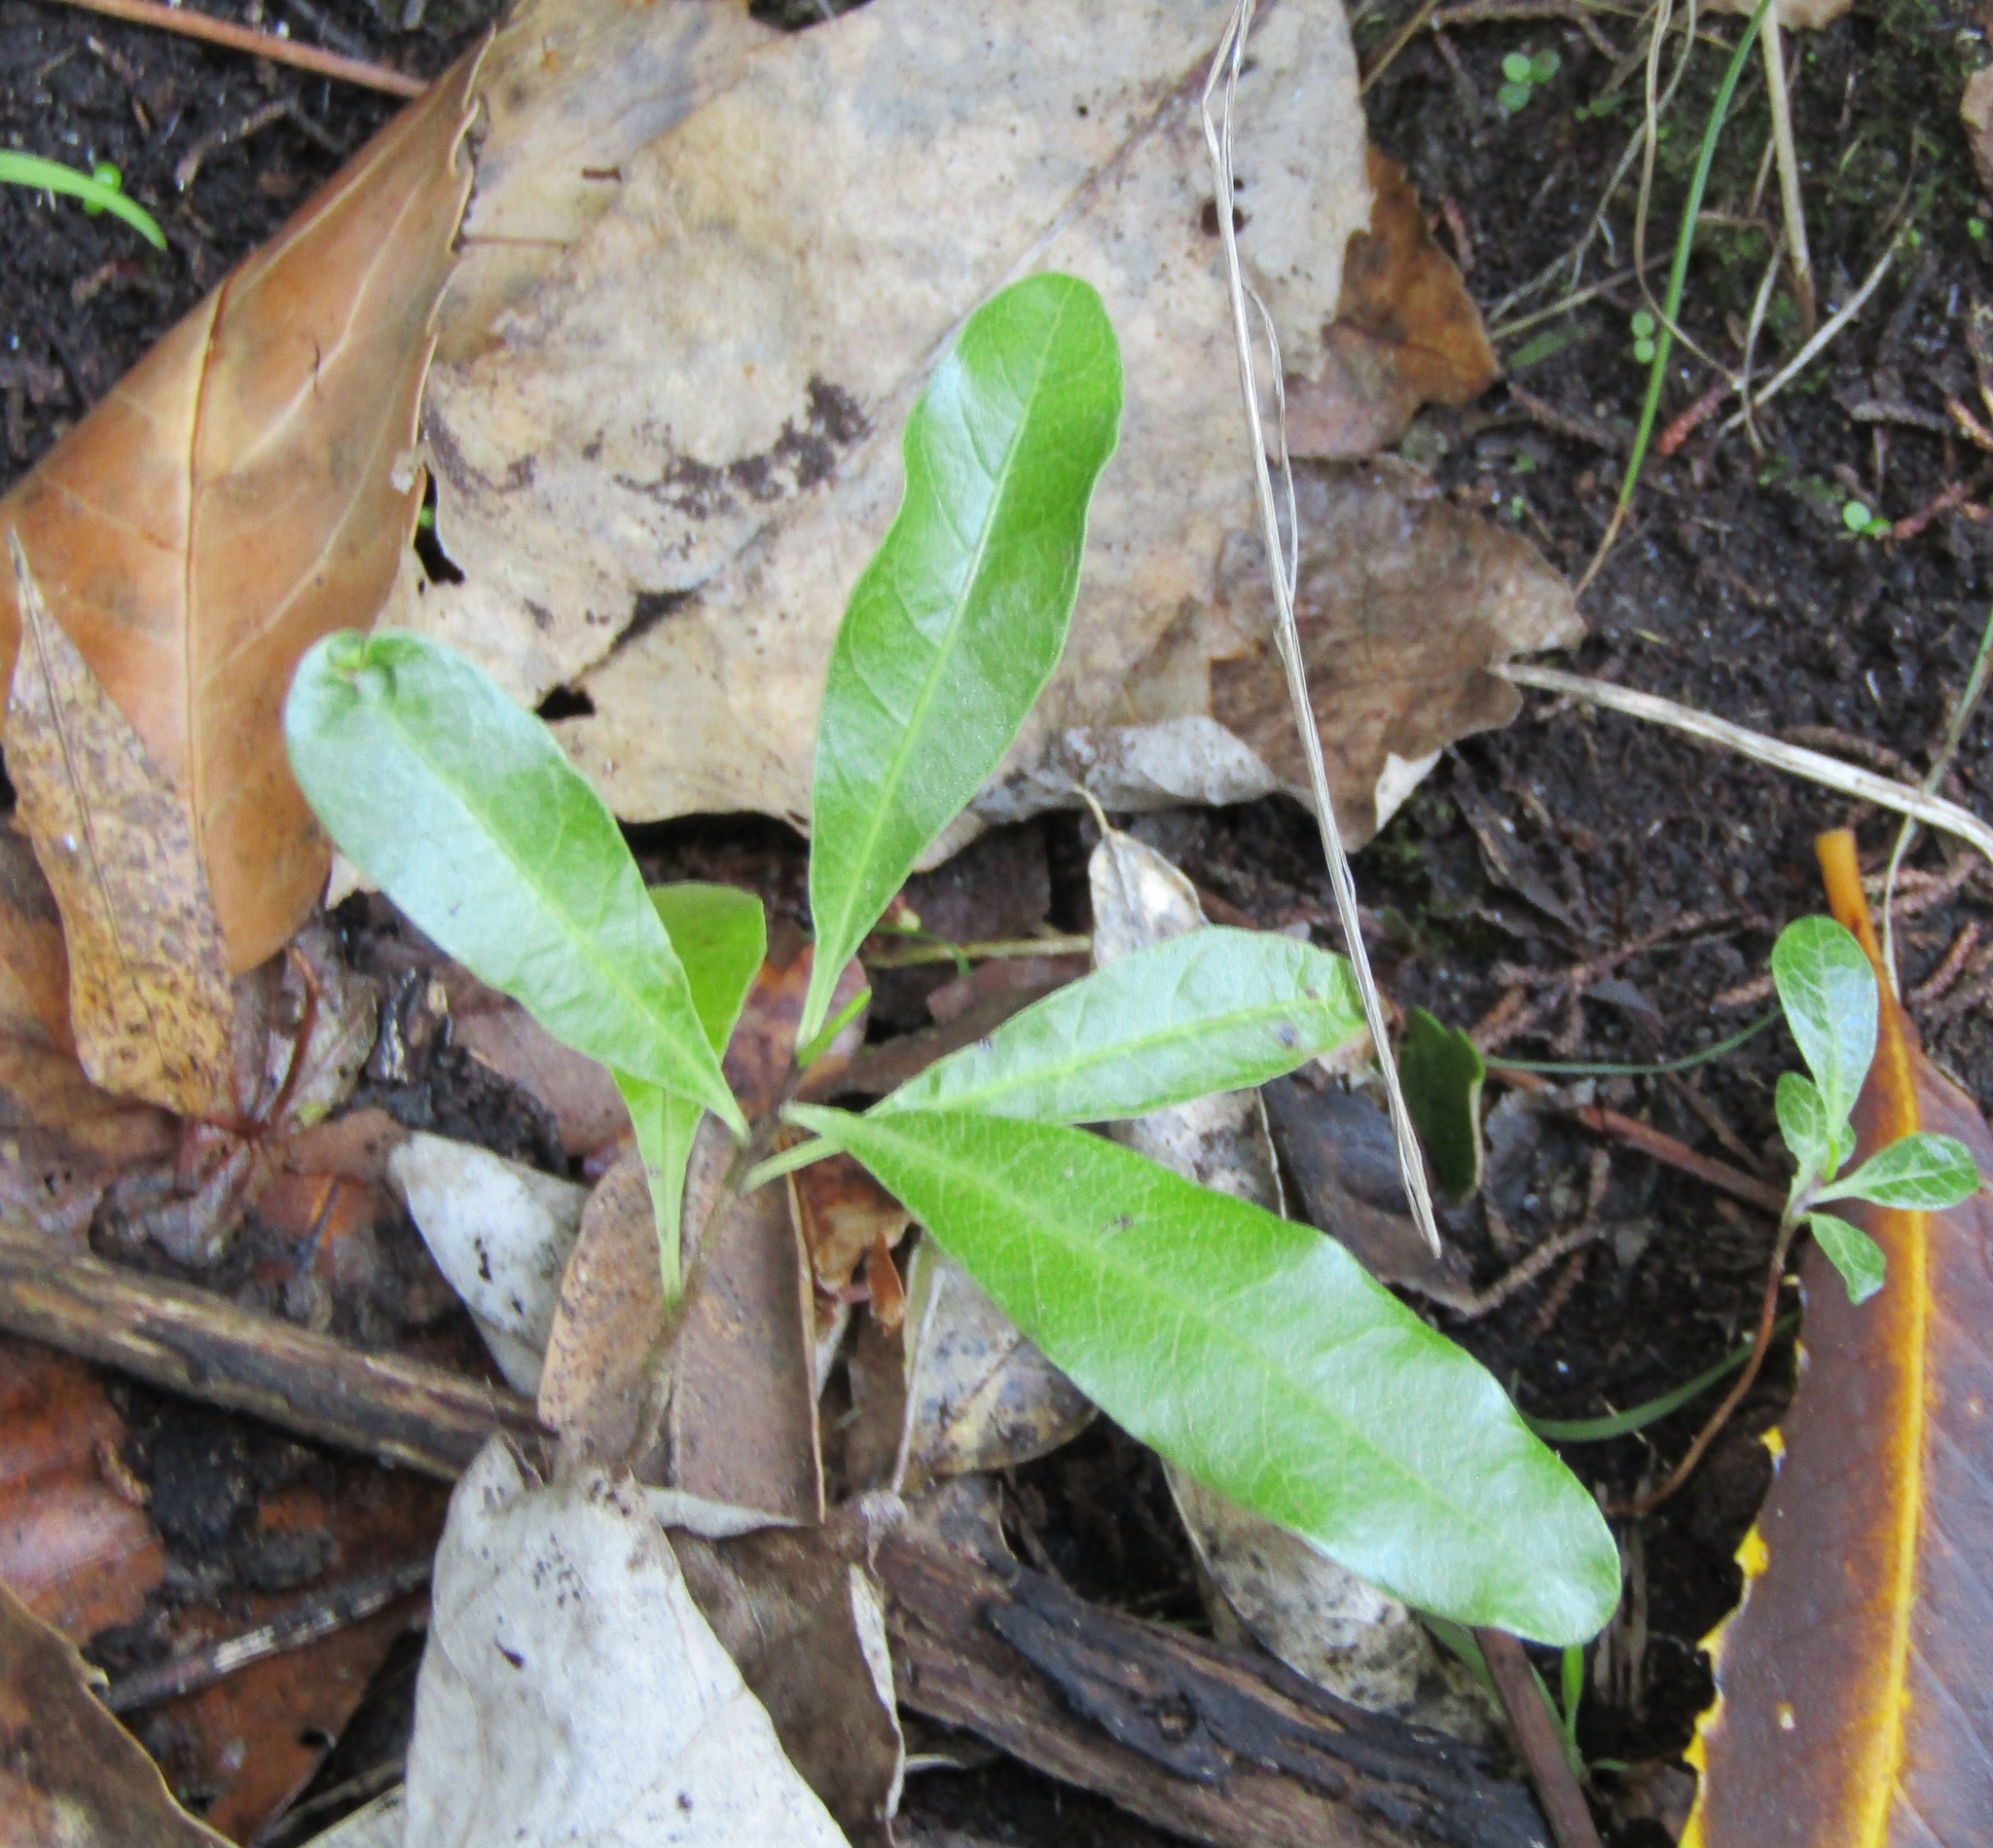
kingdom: Plantae
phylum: Tracheophyta
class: Magnoliopsida
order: Sapindales
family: Sapindaceae
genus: Dodonaea
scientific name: Dodonaea viscosa
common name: Hopbush
